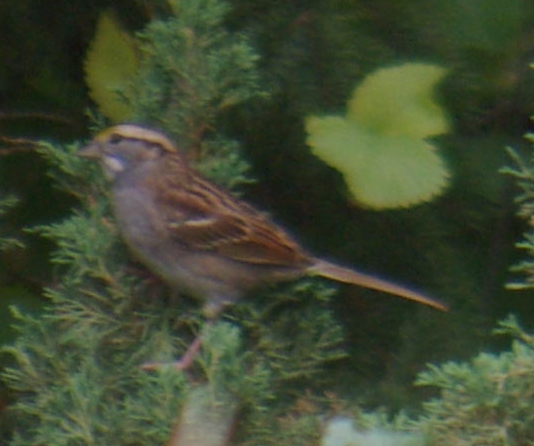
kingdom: Animalia
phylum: Chordata
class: Aves
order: Passeriformes
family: Passerellidae
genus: Zonotrichia
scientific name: Zonotrichia albicollis
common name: White-throated sparrow
